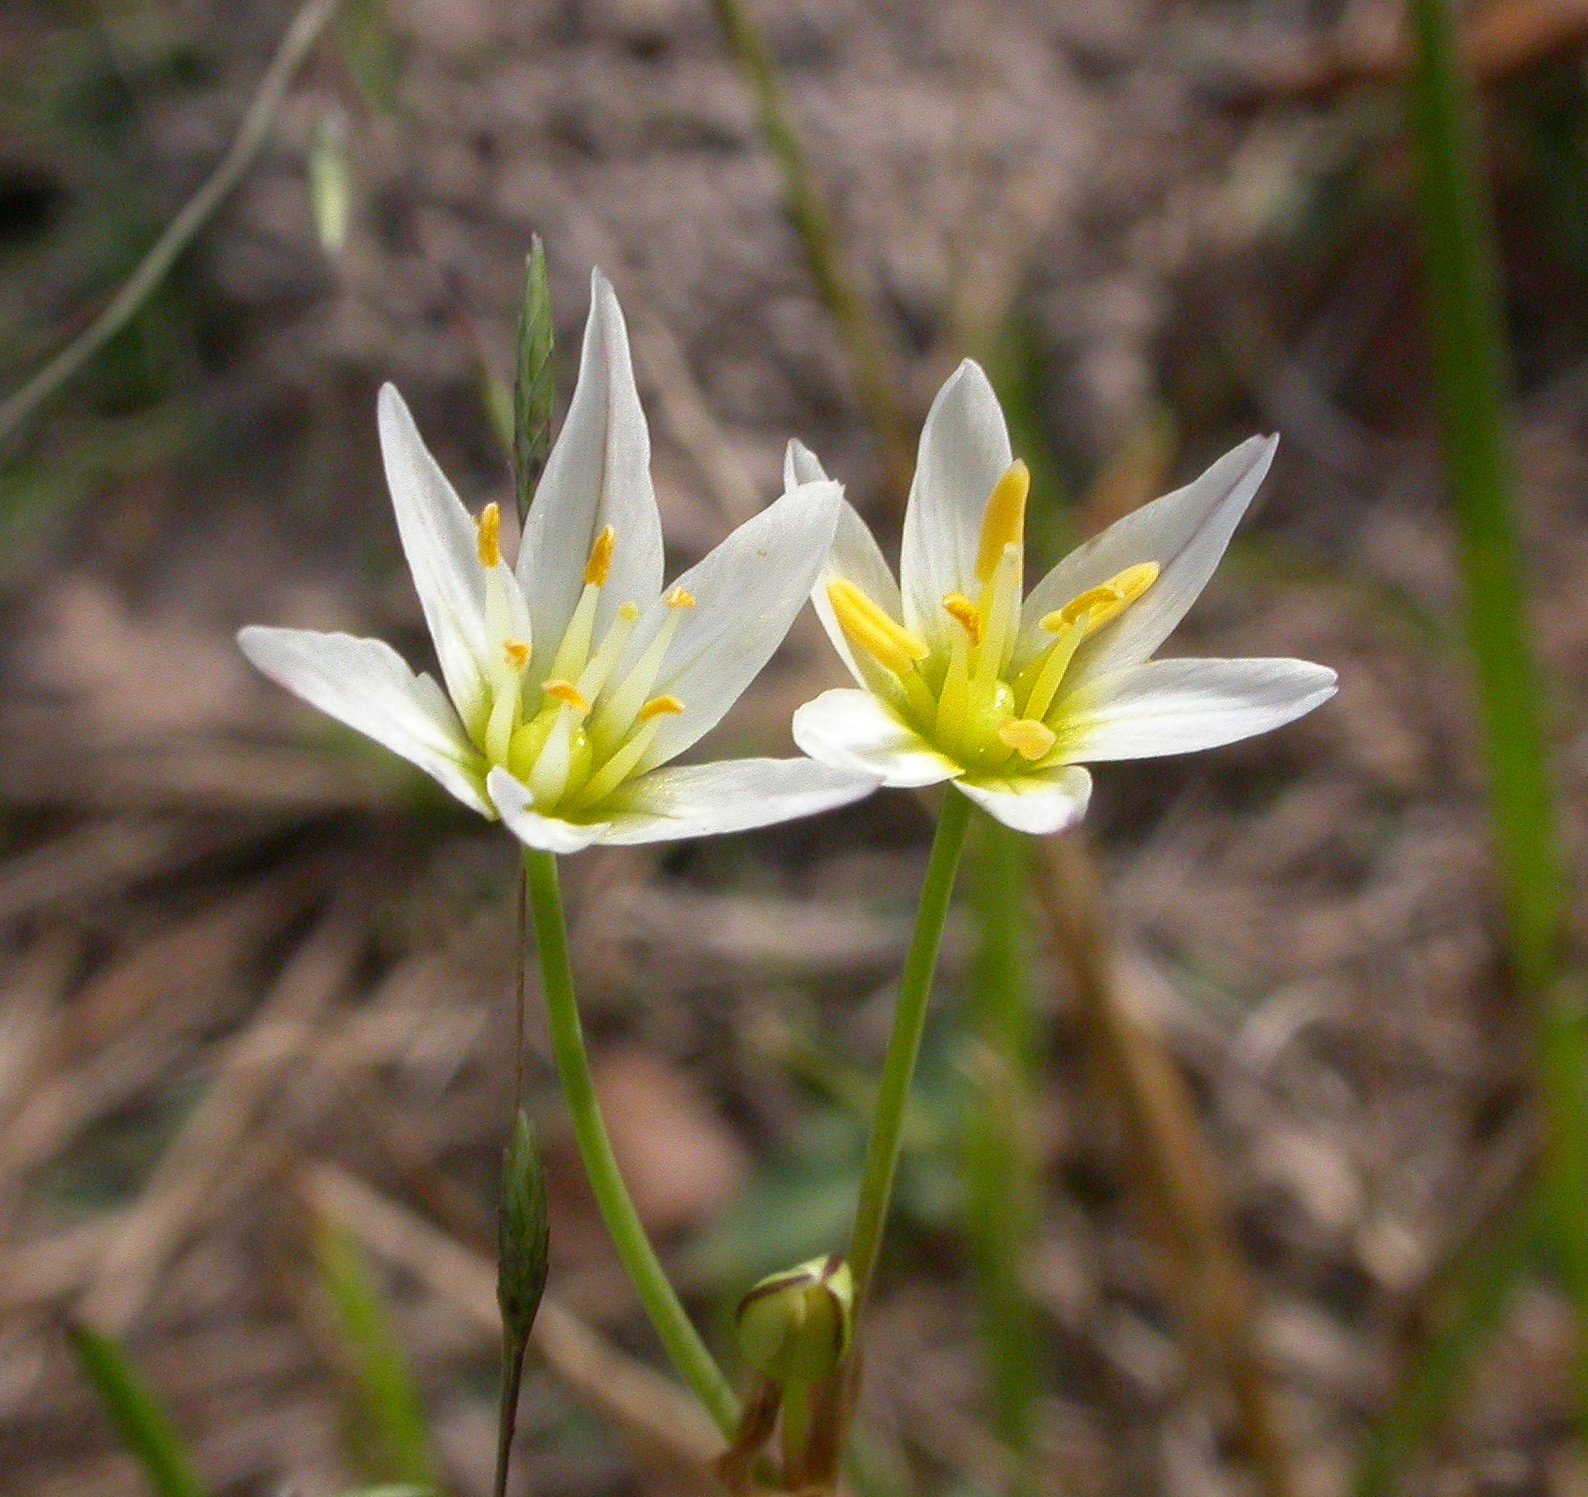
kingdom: Plantae
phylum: Tracheophyta
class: Liliopsida
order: Asparagales
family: Amaryllidaceae
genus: Nothoscordum
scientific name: Nothoscordum bivalve
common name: Crow-poison
